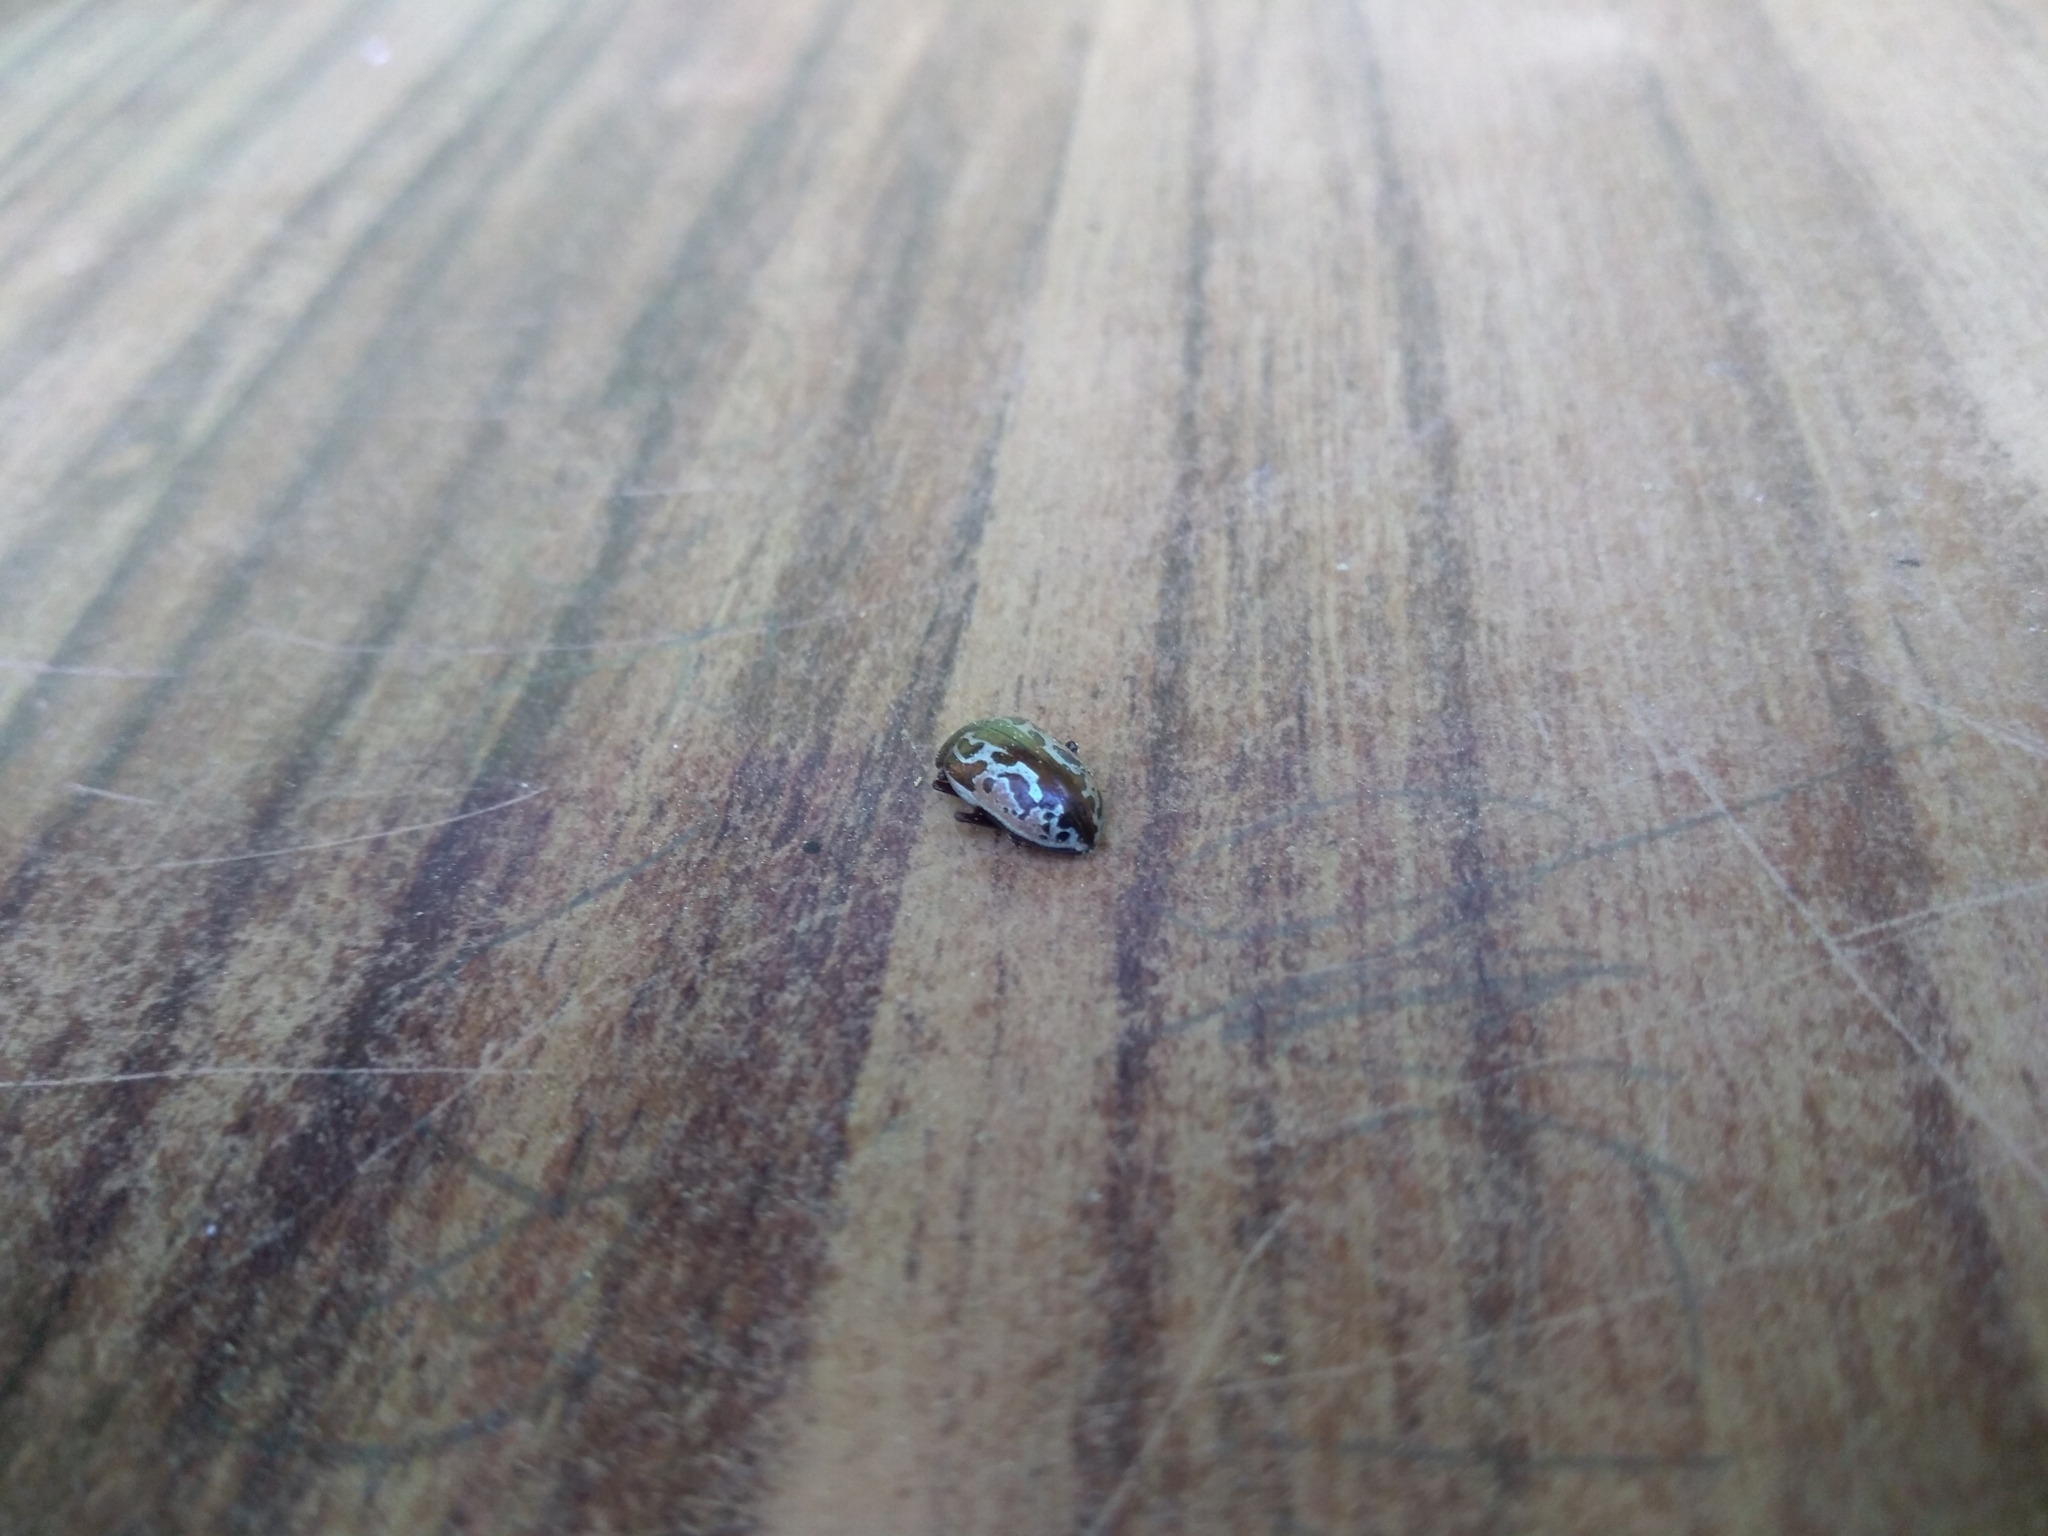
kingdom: Animalia
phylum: Arthropoda
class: Insecta
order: Coleoptera
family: Chrysomelidae
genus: Calligrapha
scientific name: Calligrapha
